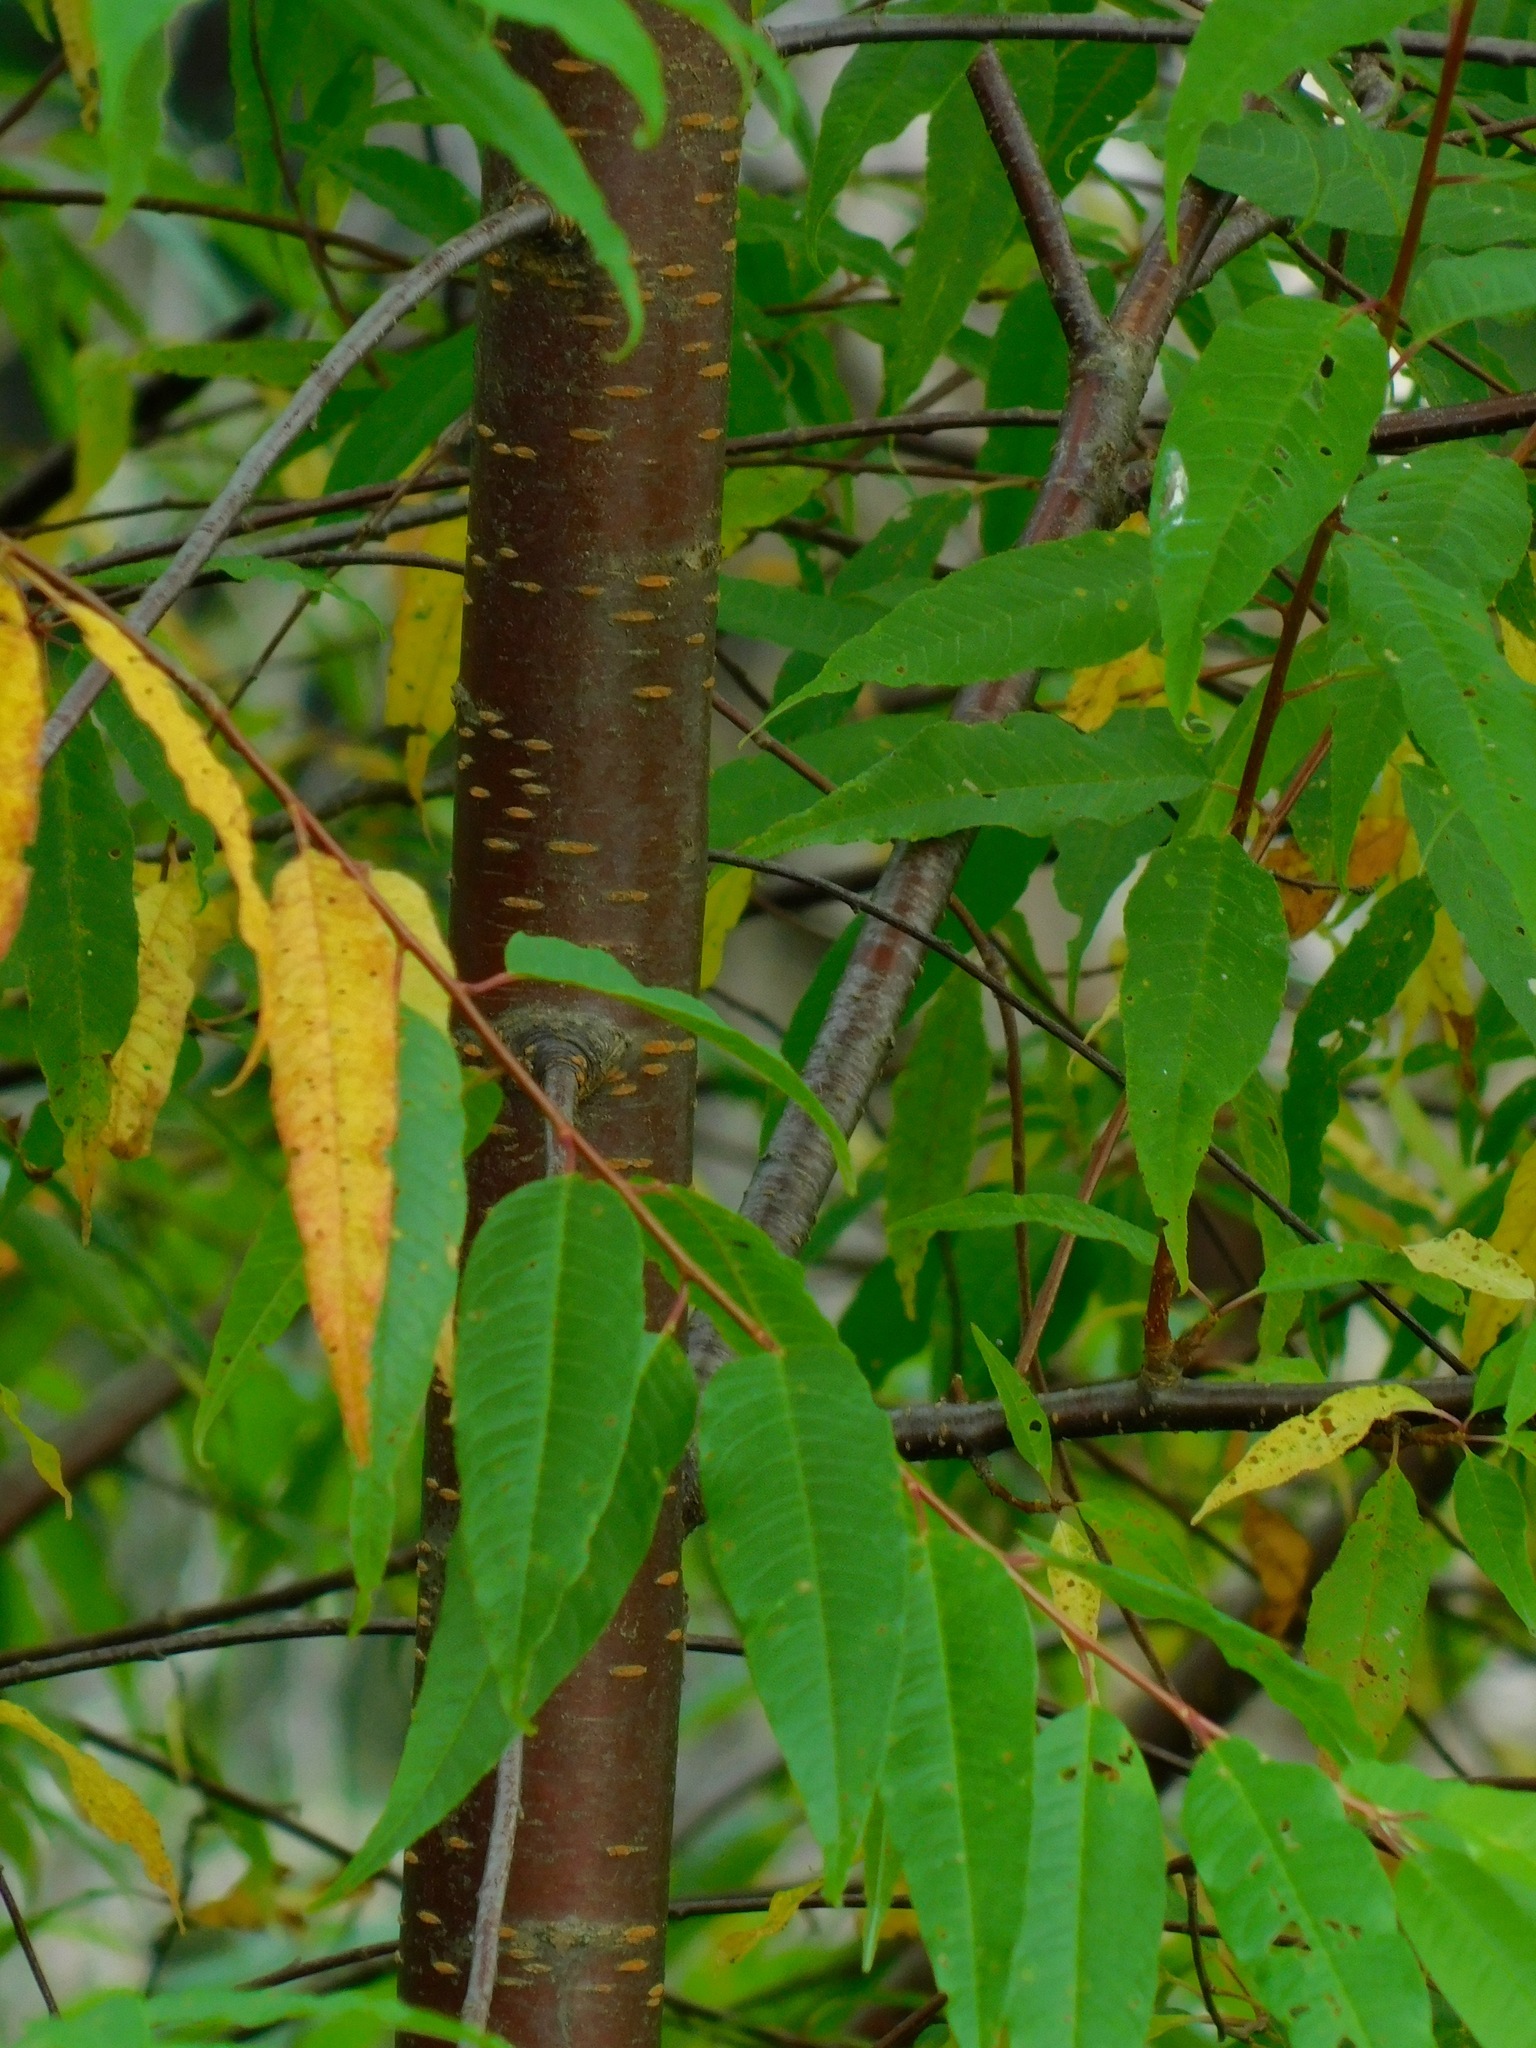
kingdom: Plantae
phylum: Tracheophyta
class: Magnoliopsida
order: Rosales
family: Rosaceae
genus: Prunus
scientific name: Prunus pensylvanica
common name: Pin cherry
